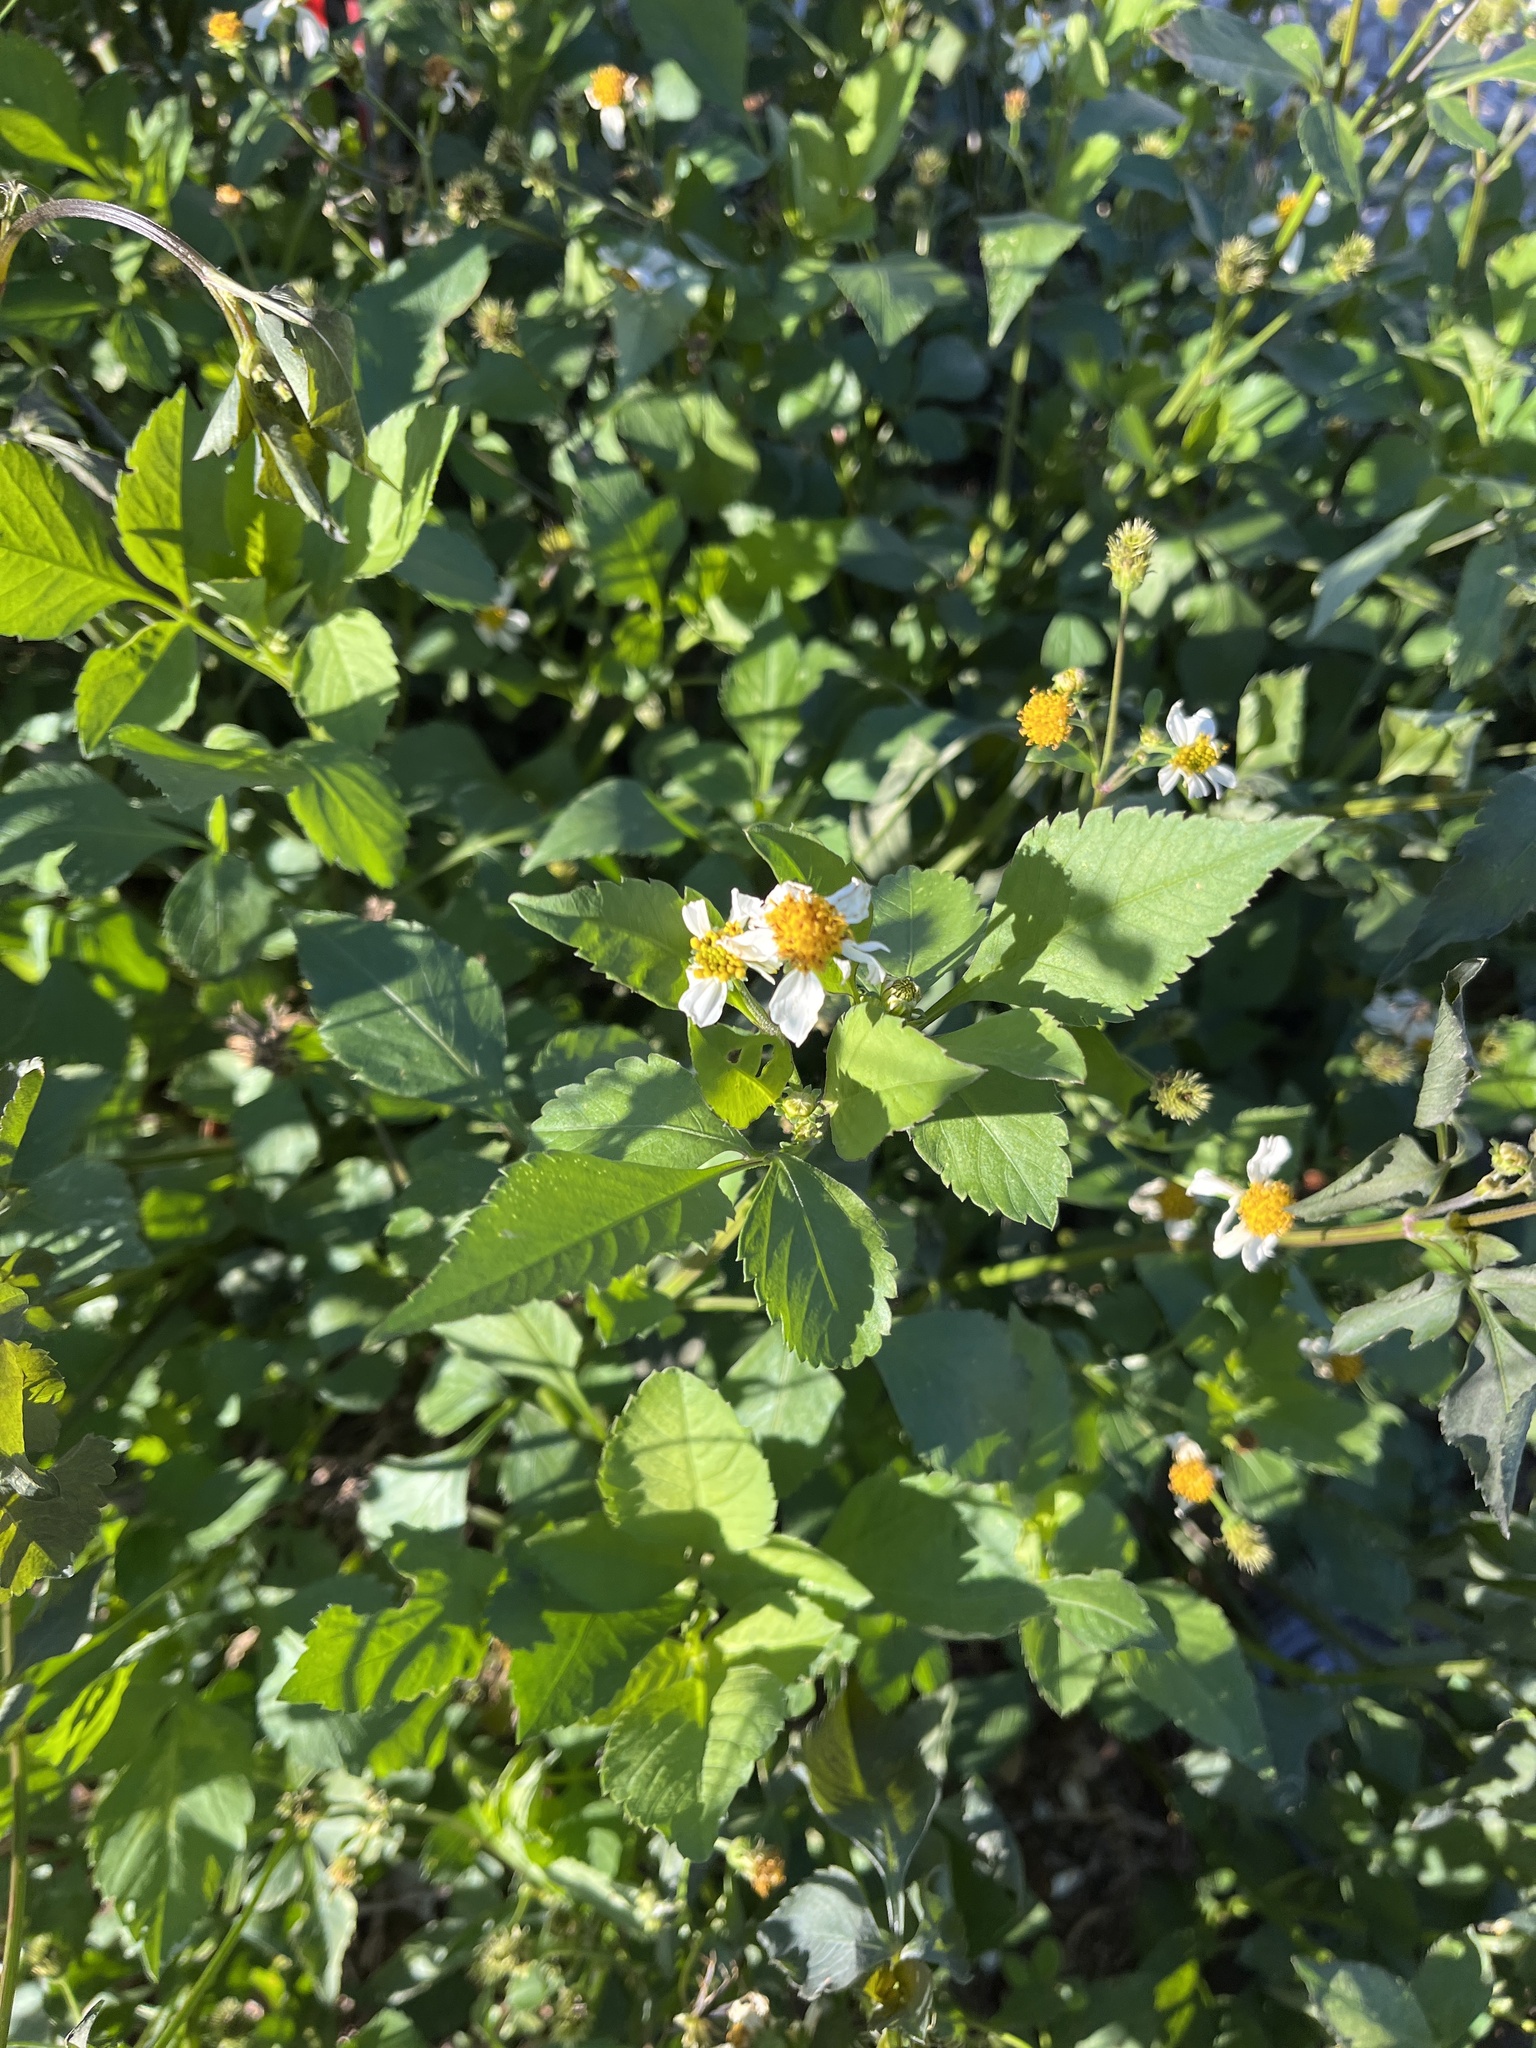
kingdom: Plantae
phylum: Tracheophyta
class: Magnoliopsida
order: Asterales
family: Asteraceae
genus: Bidens
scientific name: Bidens alba
